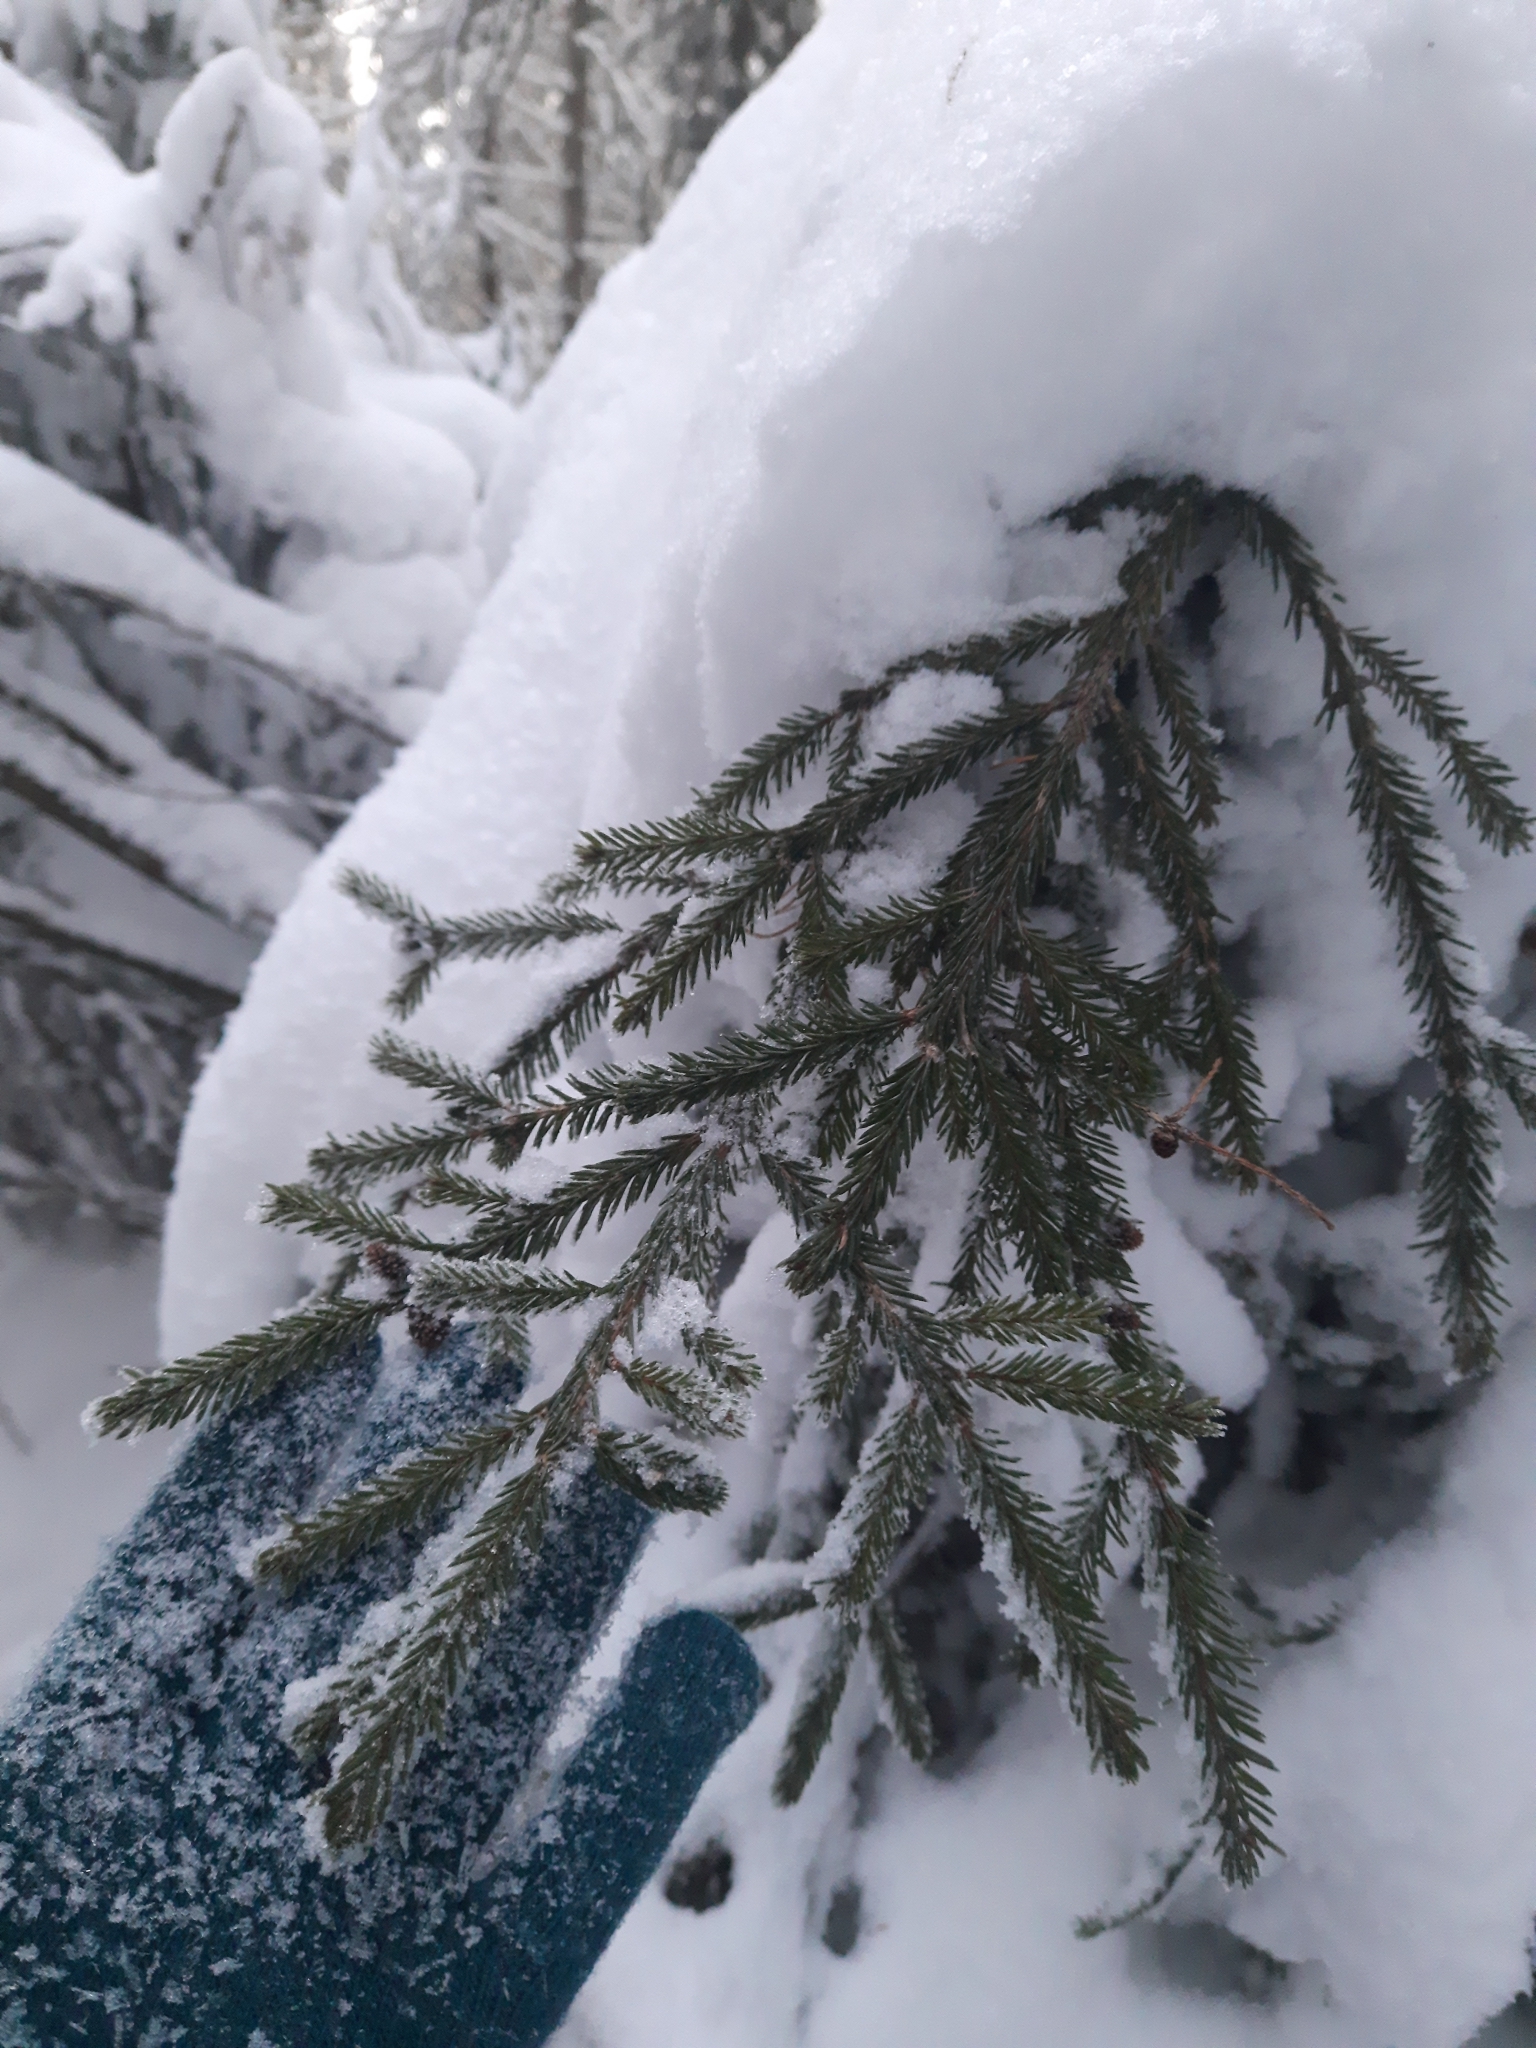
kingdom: Plantae
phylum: Tracheophyta
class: Pinopsida
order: Pinales
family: Pinaceae
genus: Picea
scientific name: Picea obovata
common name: Siberian spruce
